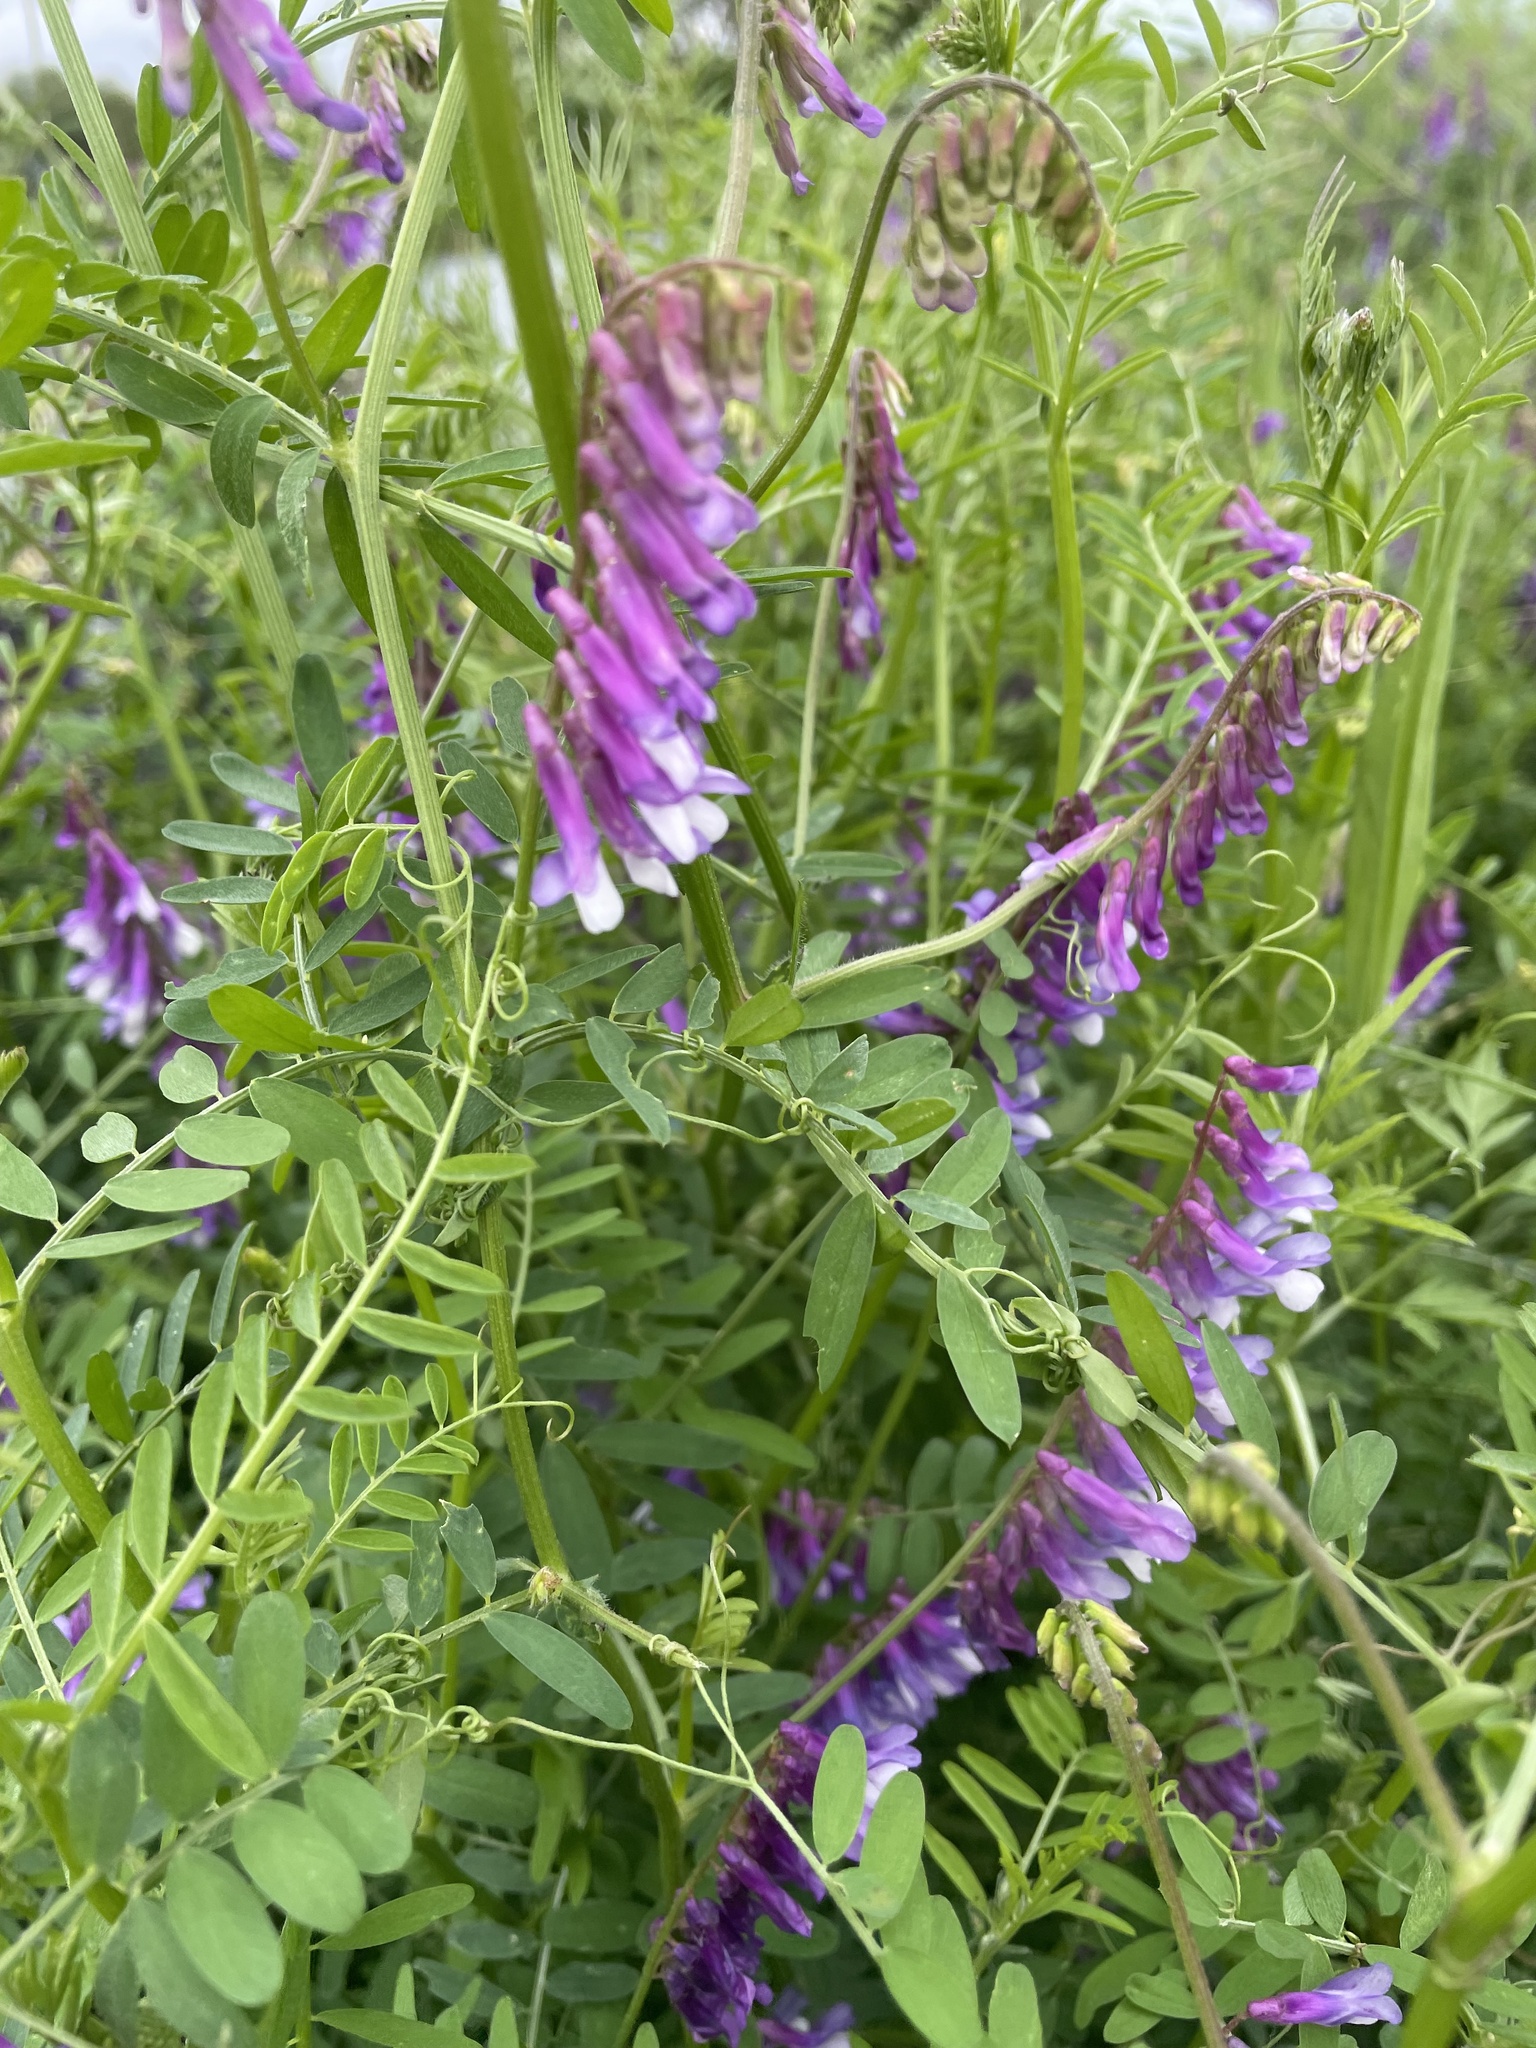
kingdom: Plantae
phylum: Tracheophyta
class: Magnoliopsida
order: Fabales
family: Fabaceae
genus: Vicia
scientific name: Vicia villosa
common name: Fodder vetch
